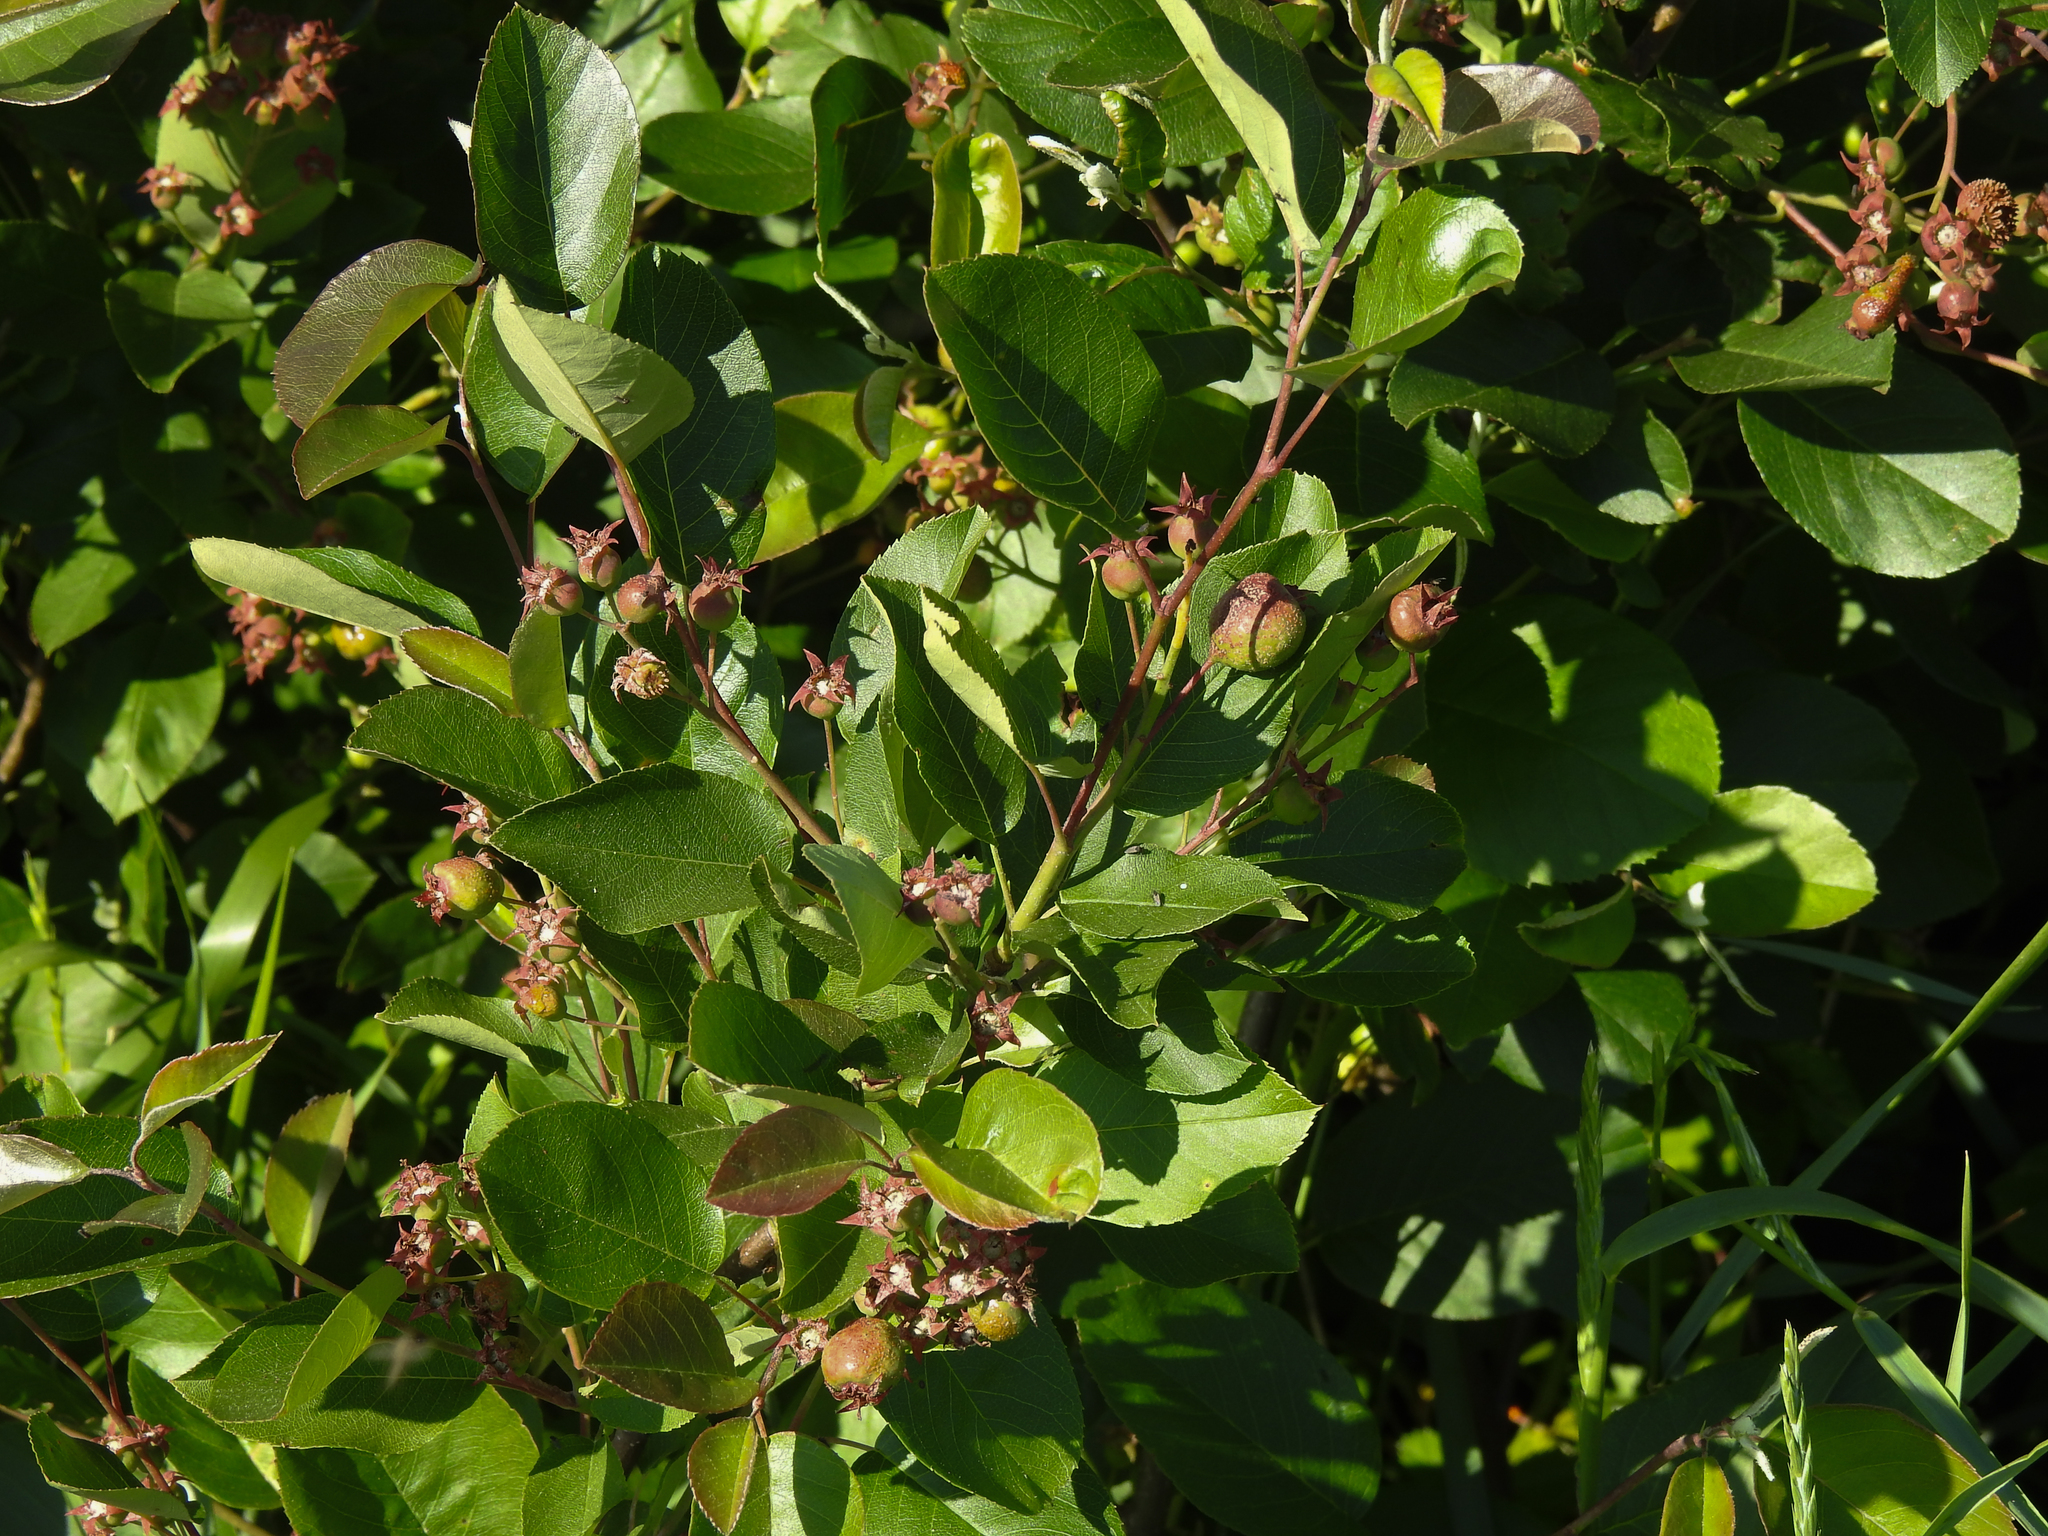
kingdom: Plantae
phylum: Tracheophyta
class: Magnoliopsida
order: Rosales
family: Rosaceae
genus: Aronia
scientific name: Aronia melanocarpa
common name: Black chokeberry
